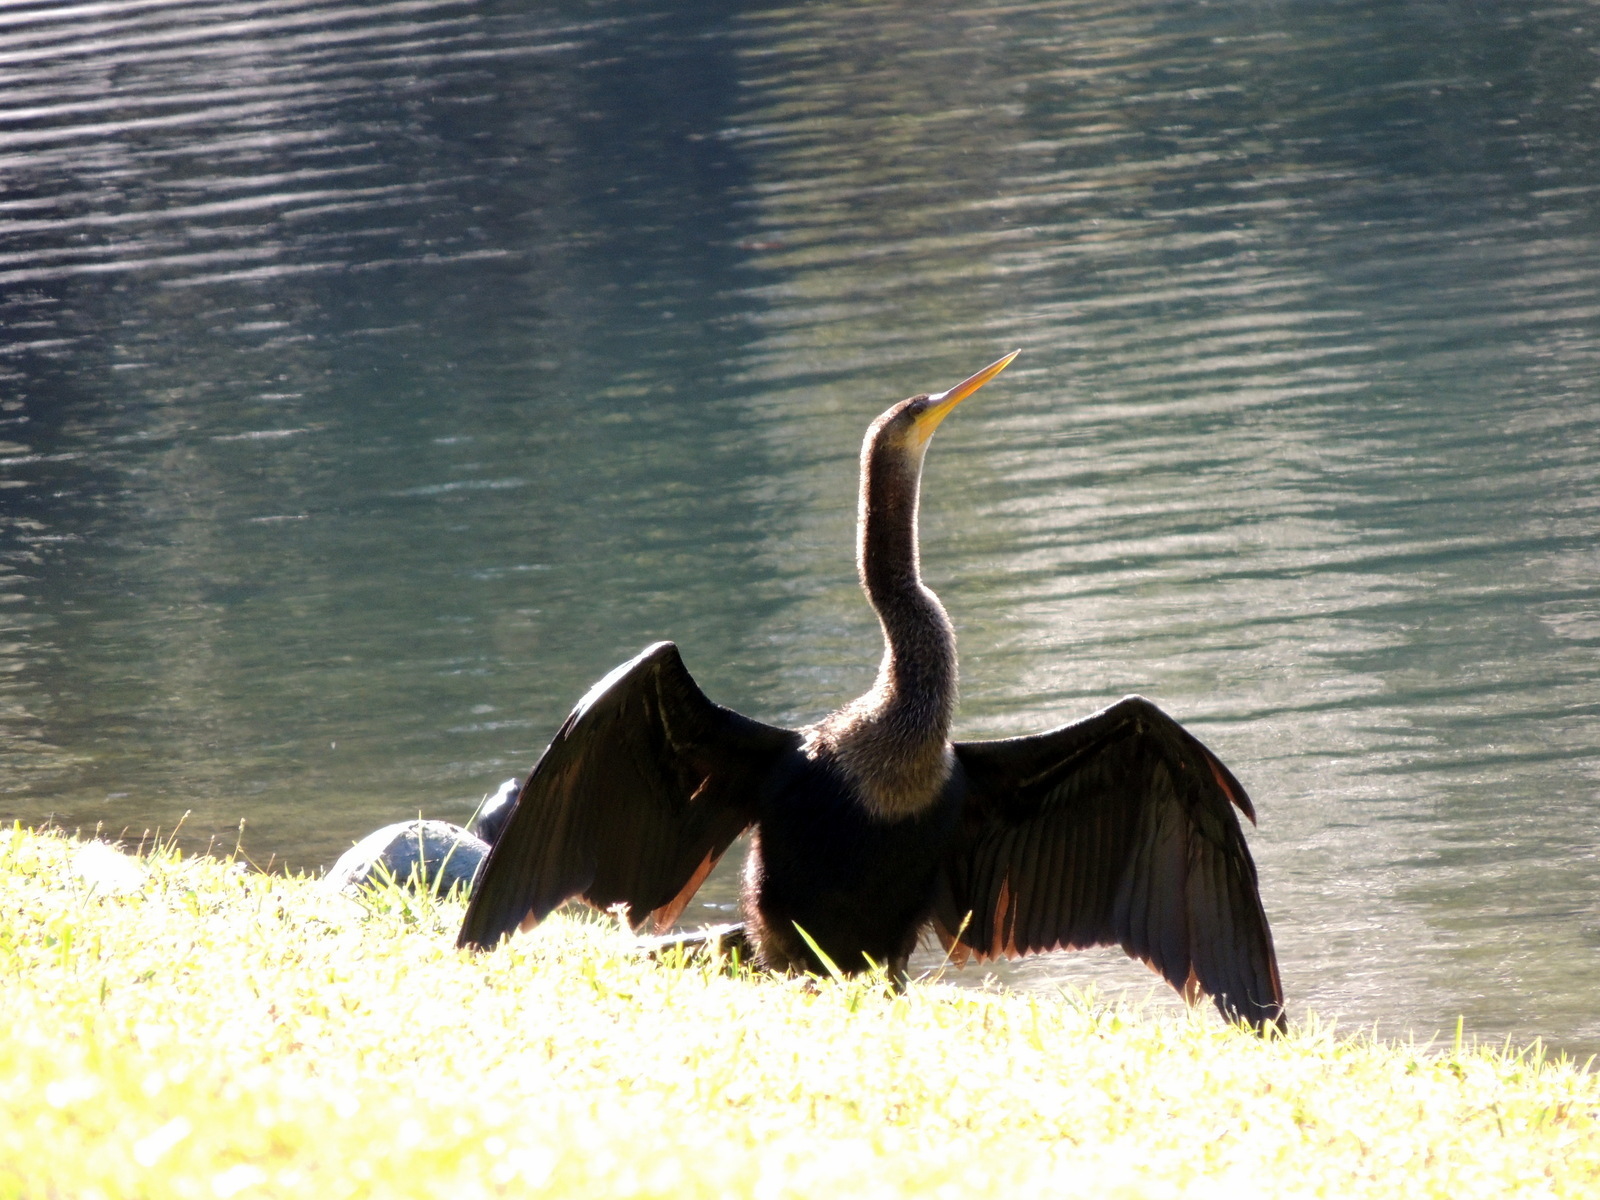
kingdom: Animalia
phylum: Chordata
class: Aves
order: Suliformes
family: Anhingidae
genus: Anhinga
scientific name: Anhinga anhinga
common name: Anhinga
